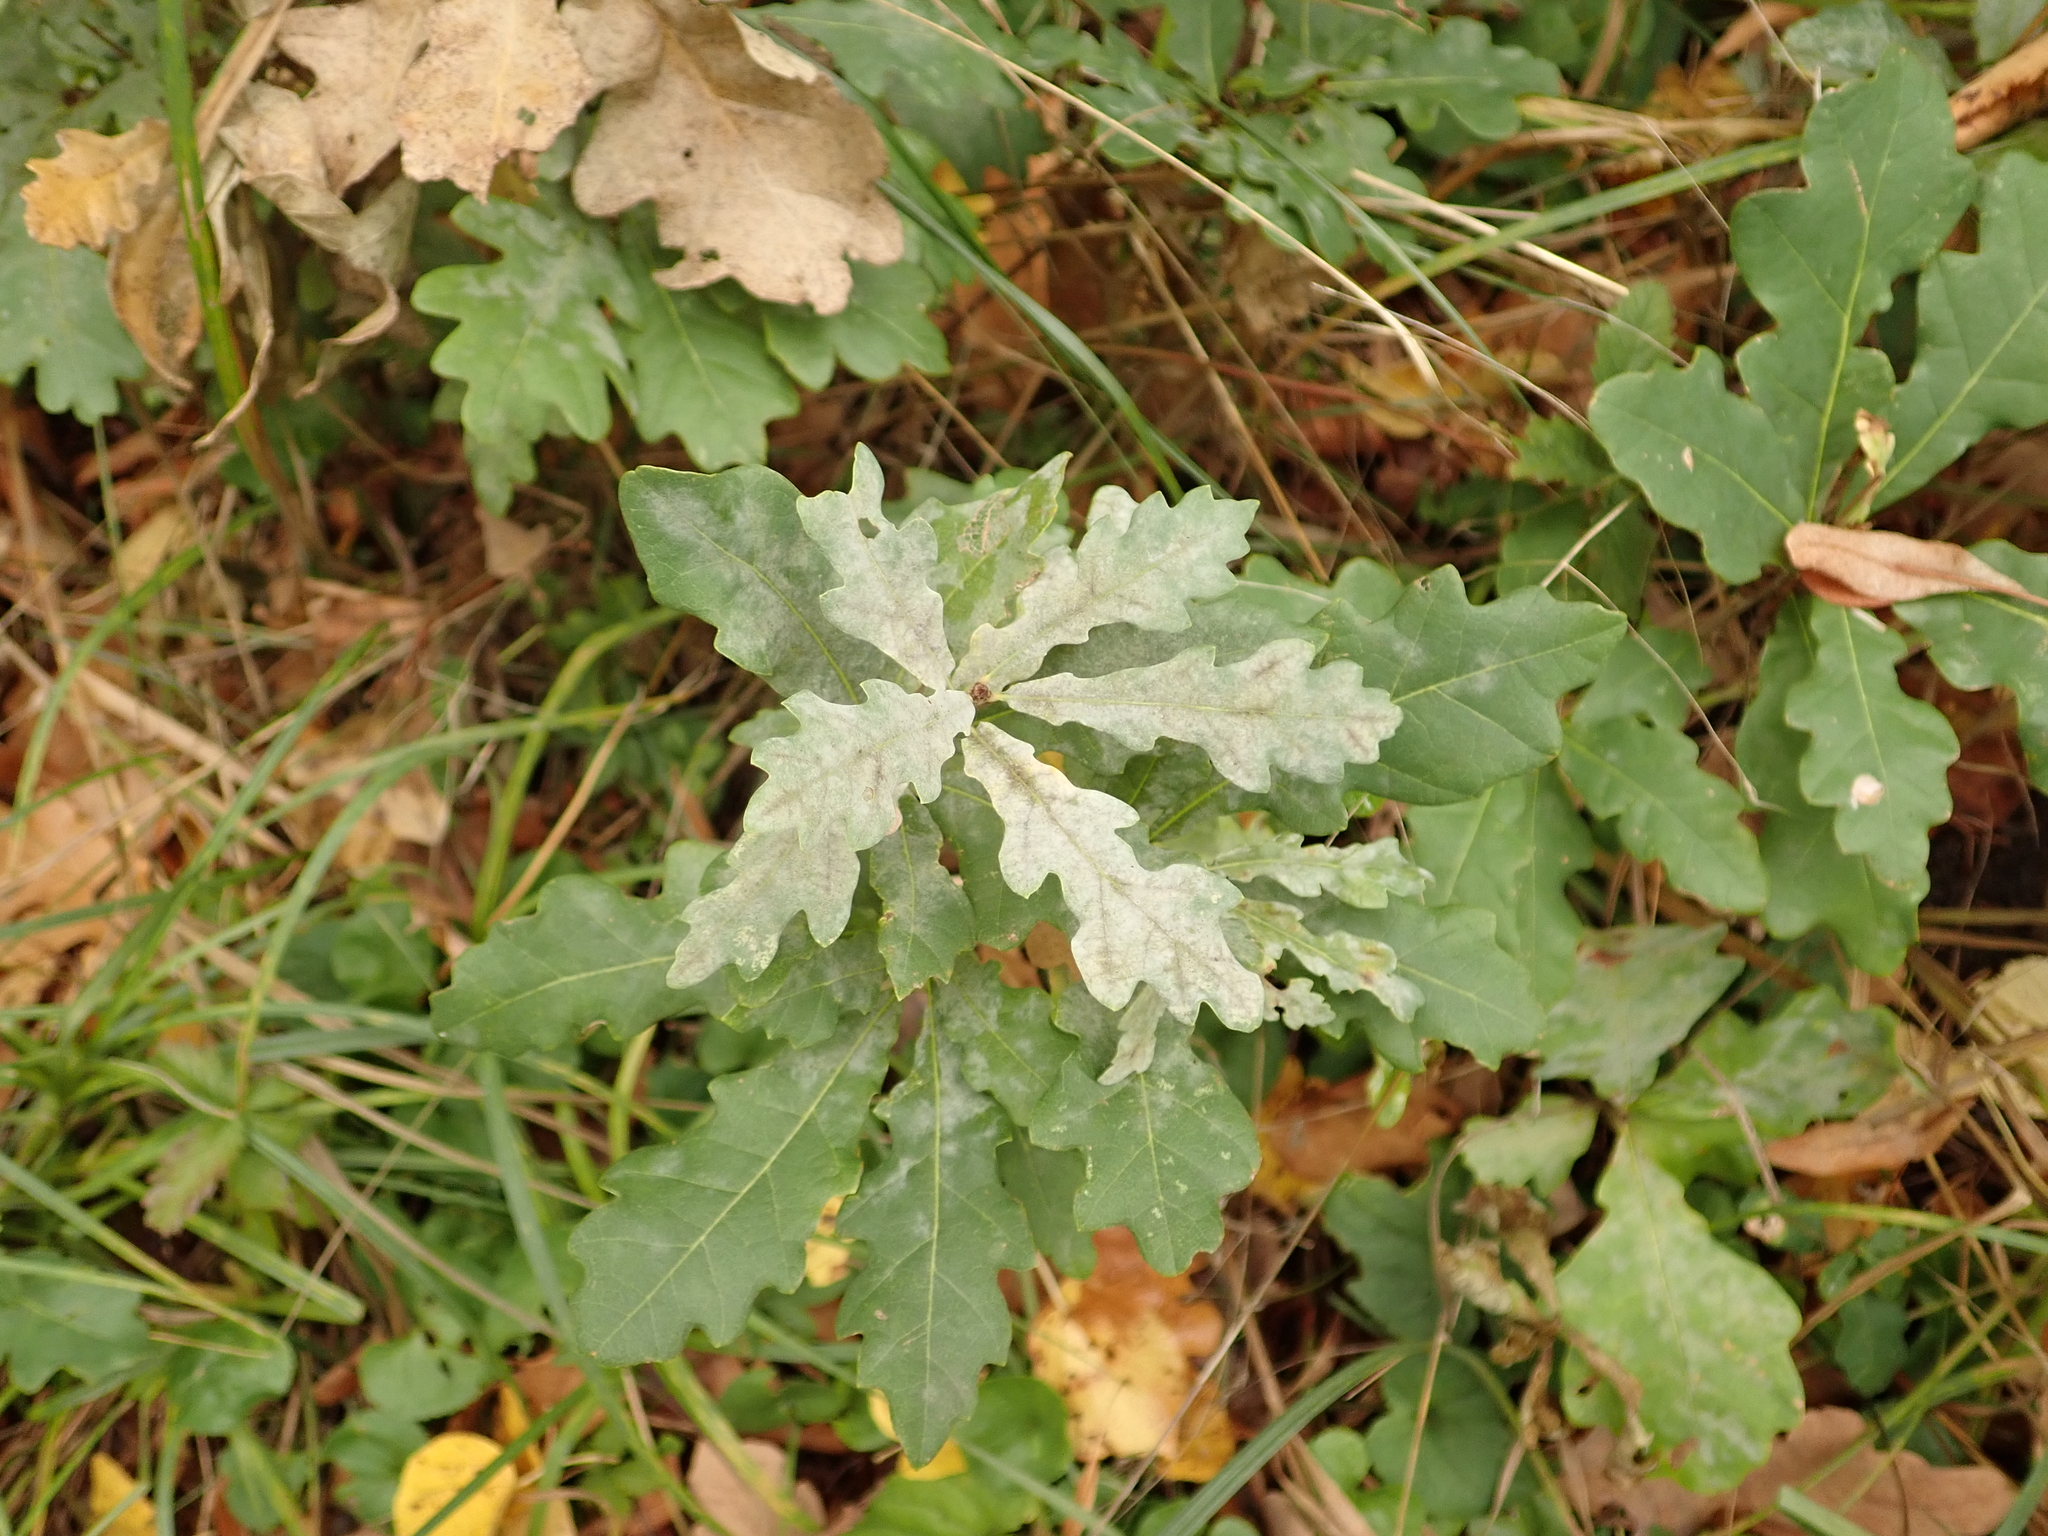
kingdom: Plantae
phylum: Tracheophyta
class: Magnoliopsida
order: Fagales
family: Fagaceae
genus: Quercus
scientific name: Quercus robur
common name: Pedunculate oak
